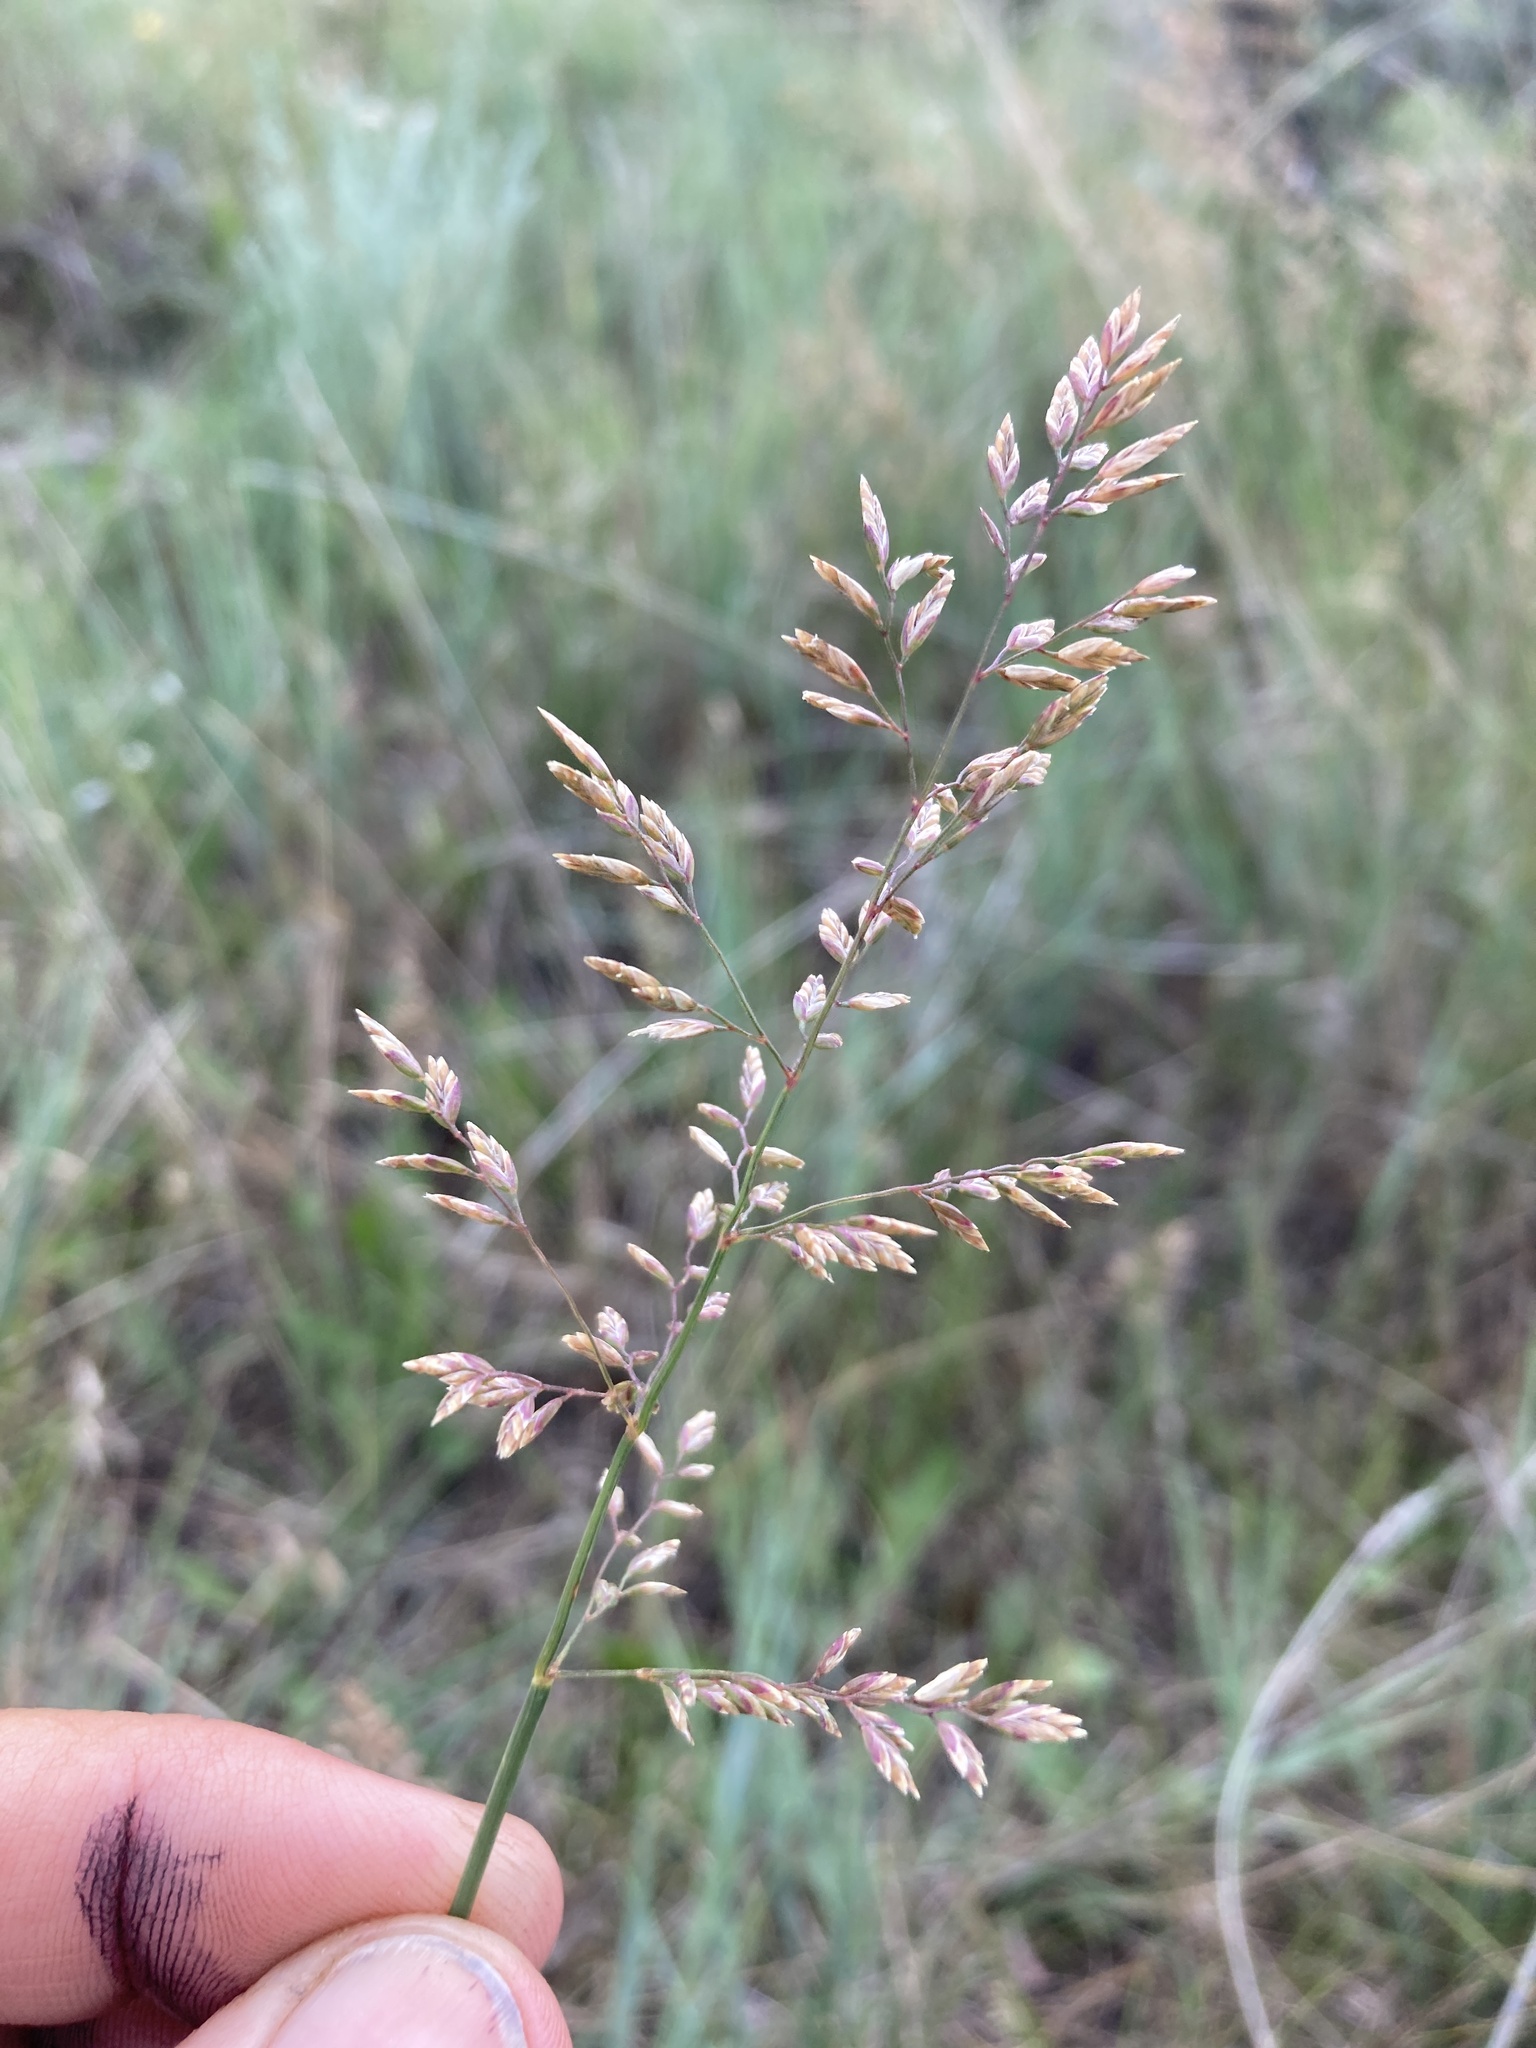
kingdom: Plantae
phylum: Tracheophyta
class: Liliopsida
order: Poales
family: Poaceae
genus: Poa
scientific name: Poa compressa
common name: Canada bluegrass
